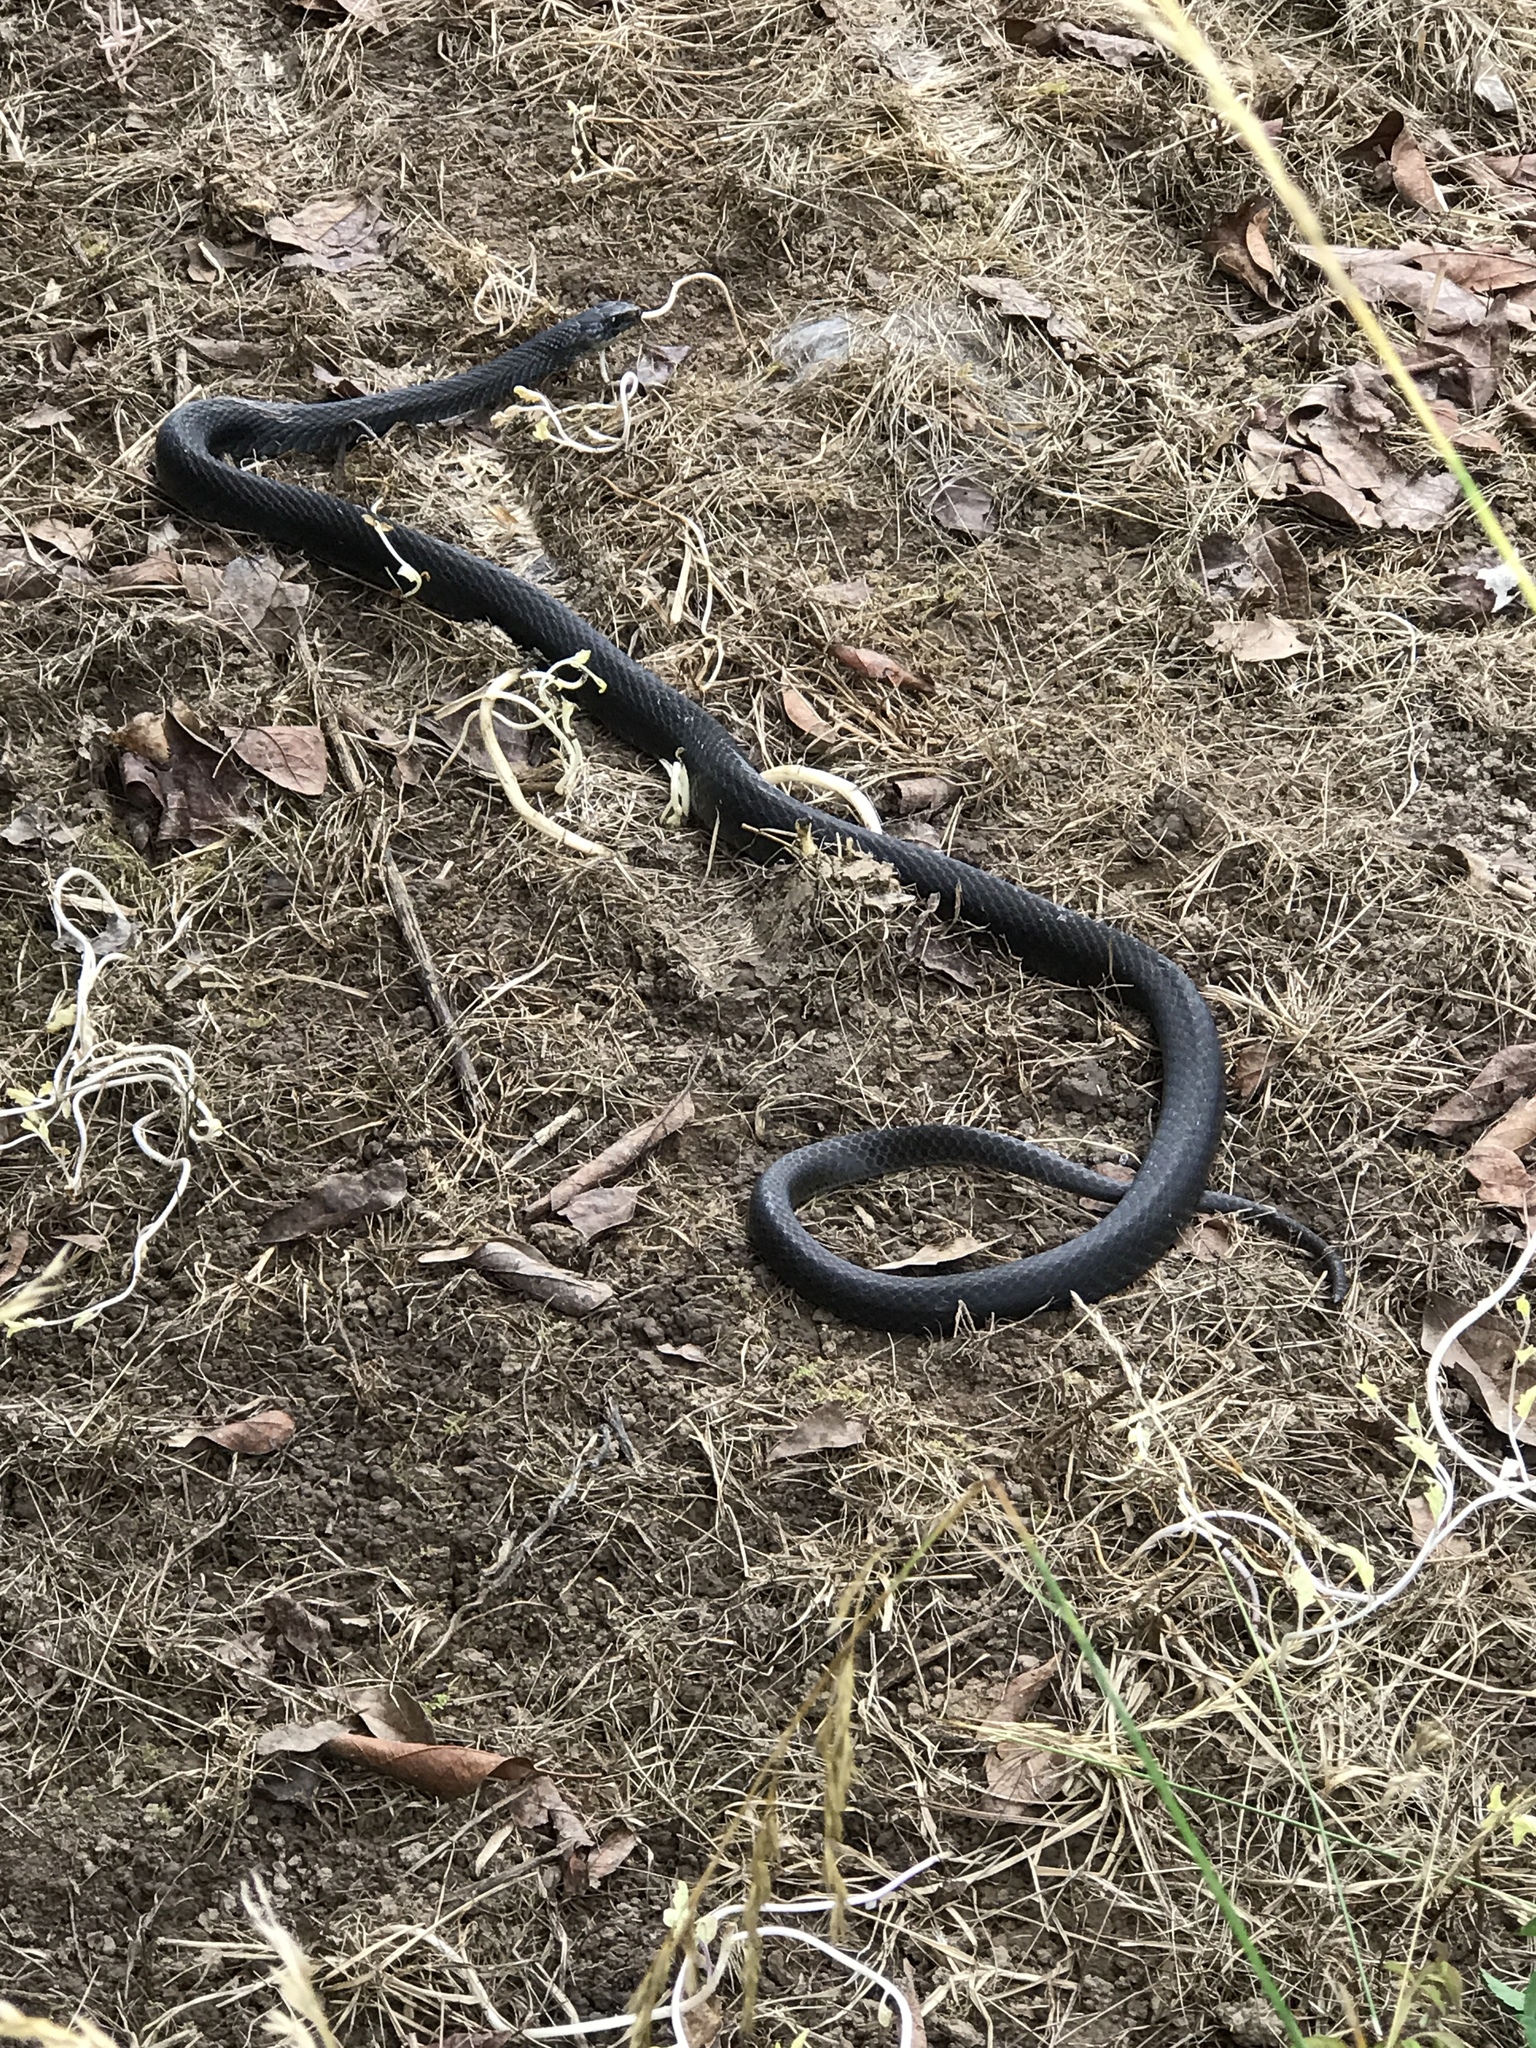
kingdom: Animalia
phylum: Chordata
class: Squamata
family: Colubridae
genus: Coluber
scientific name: Coluber constrictor
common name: Eastern racer
